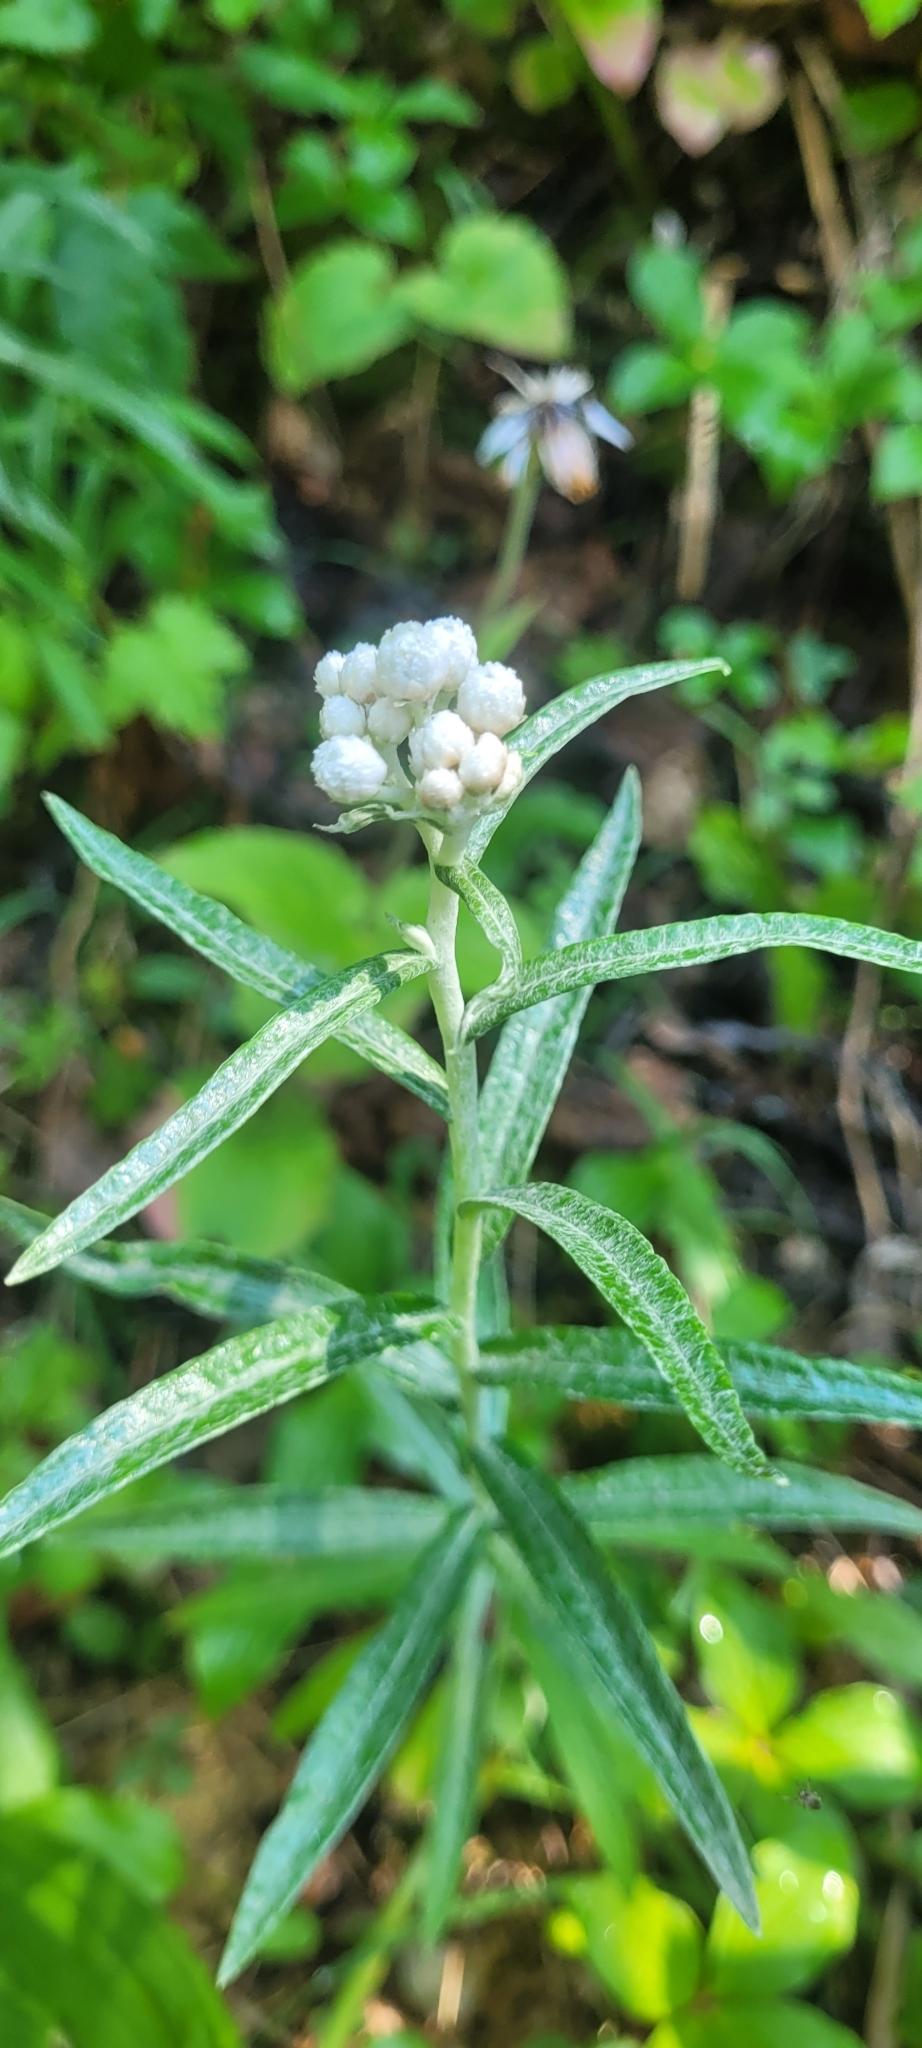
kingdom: Plantae
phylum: Tracheophyta
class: Magnoliopsida
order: Asterales
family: Asteraceae
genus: Anaphalis
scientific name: Anaphalis margaritacea
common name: Pearly everlasting
